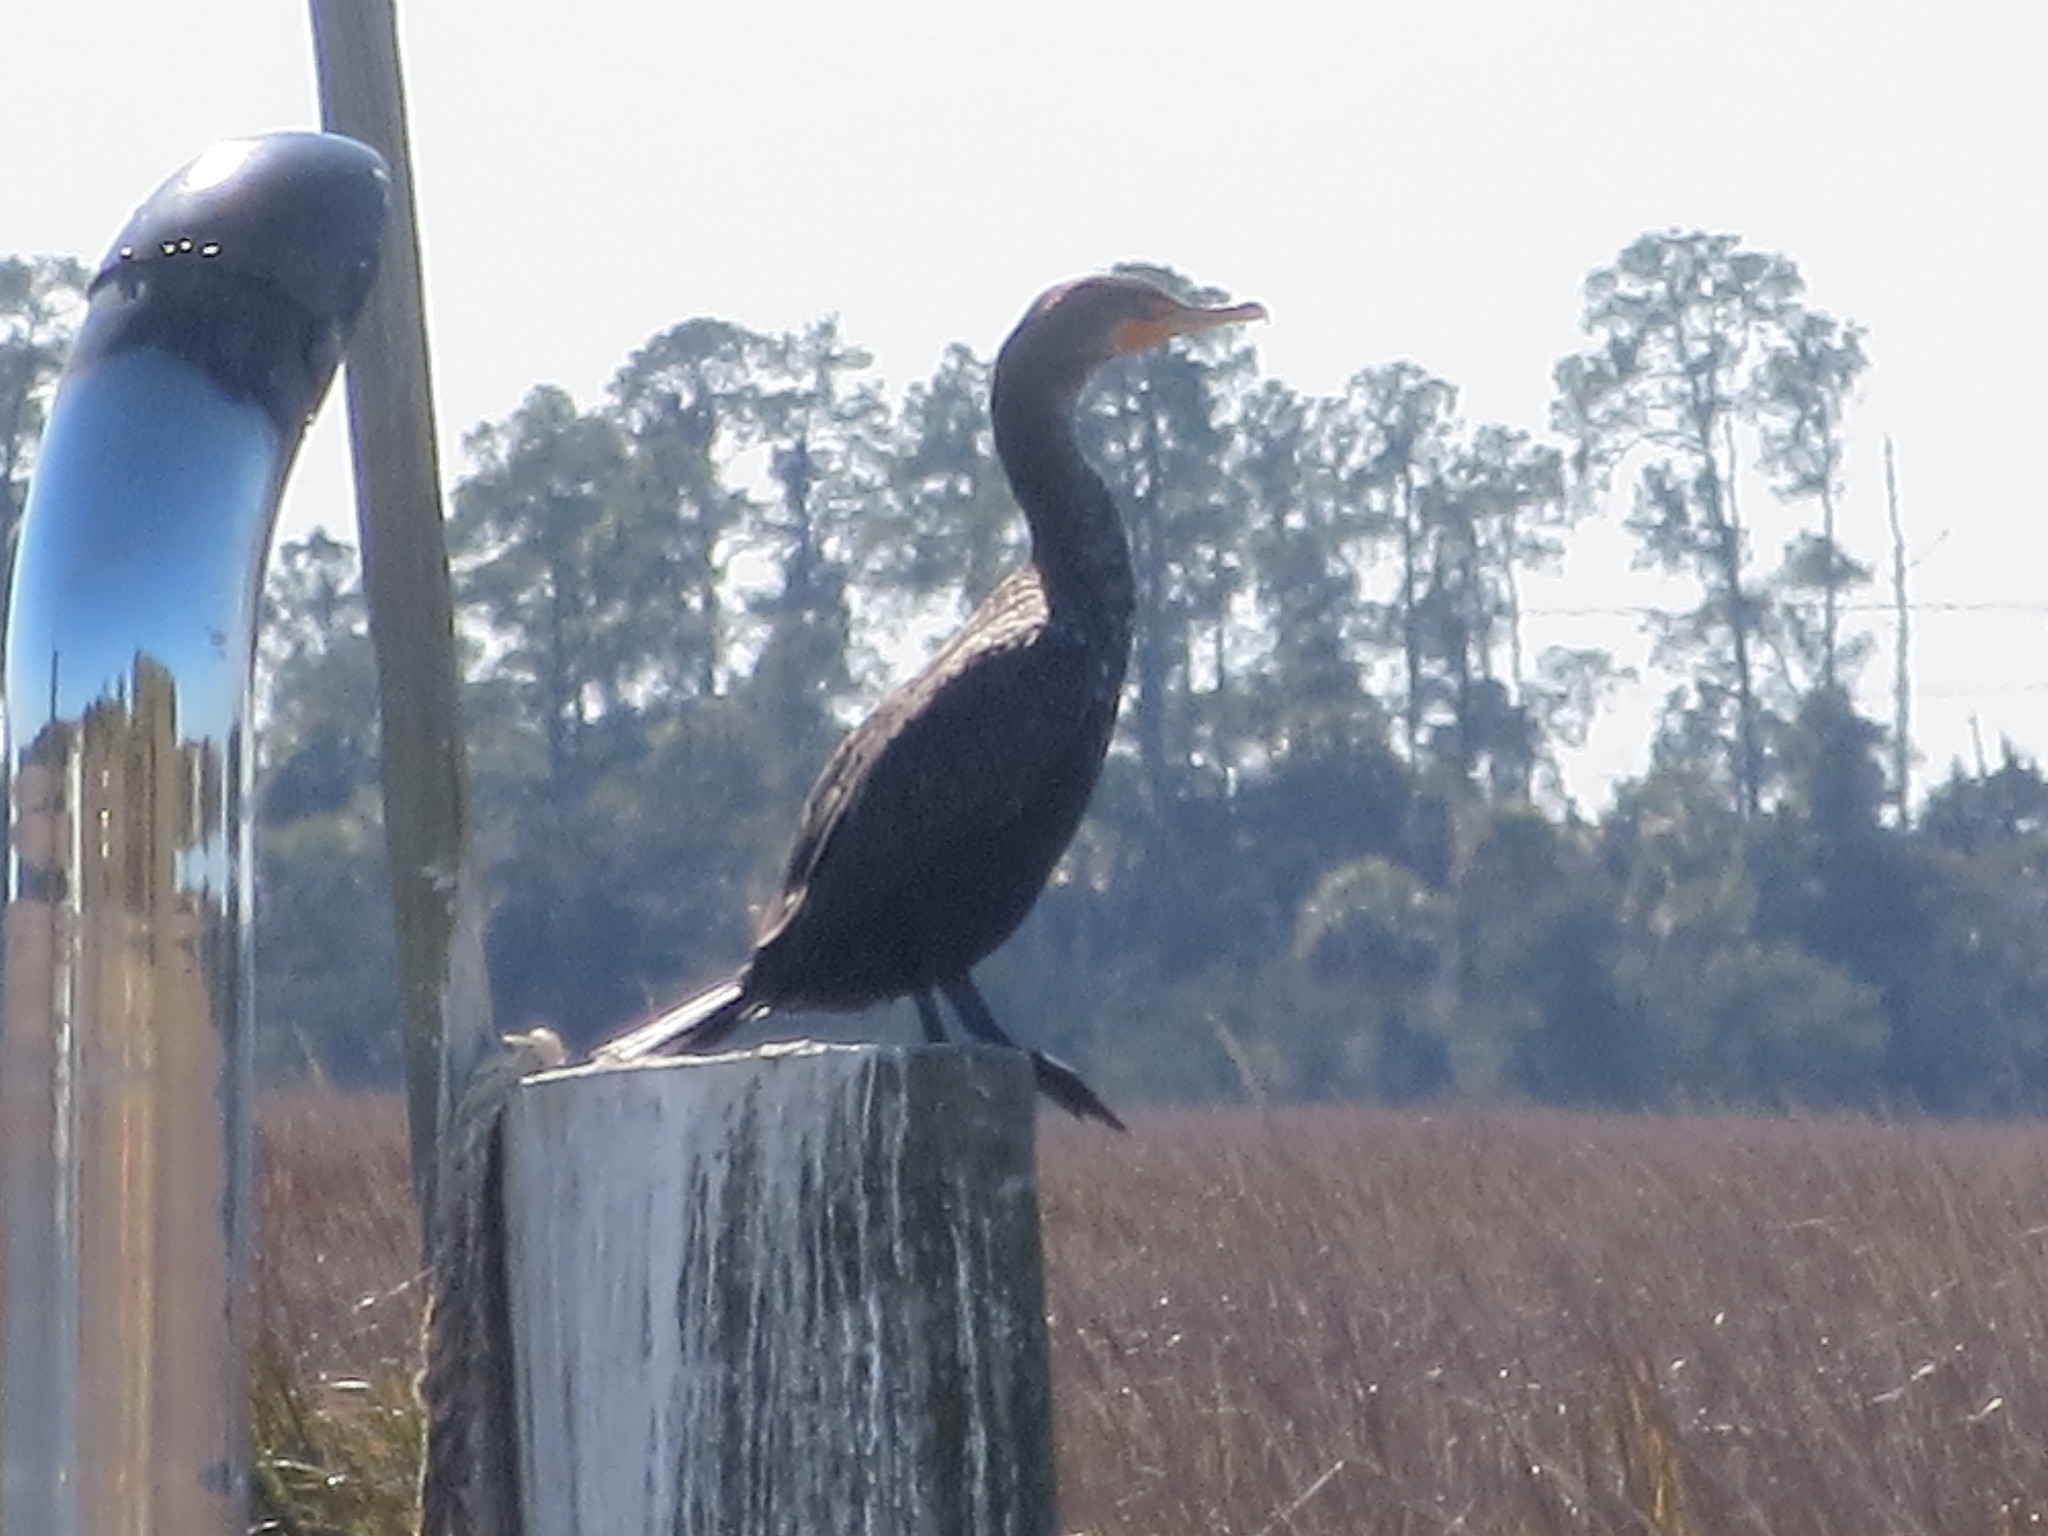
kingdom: Animalia
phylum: Chordata
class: Aves
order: Suliformes
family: Phalacrocoracidae
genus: Phalacrocorax
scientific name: Phalacrocorax auritus
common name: Double-crested cormorant
